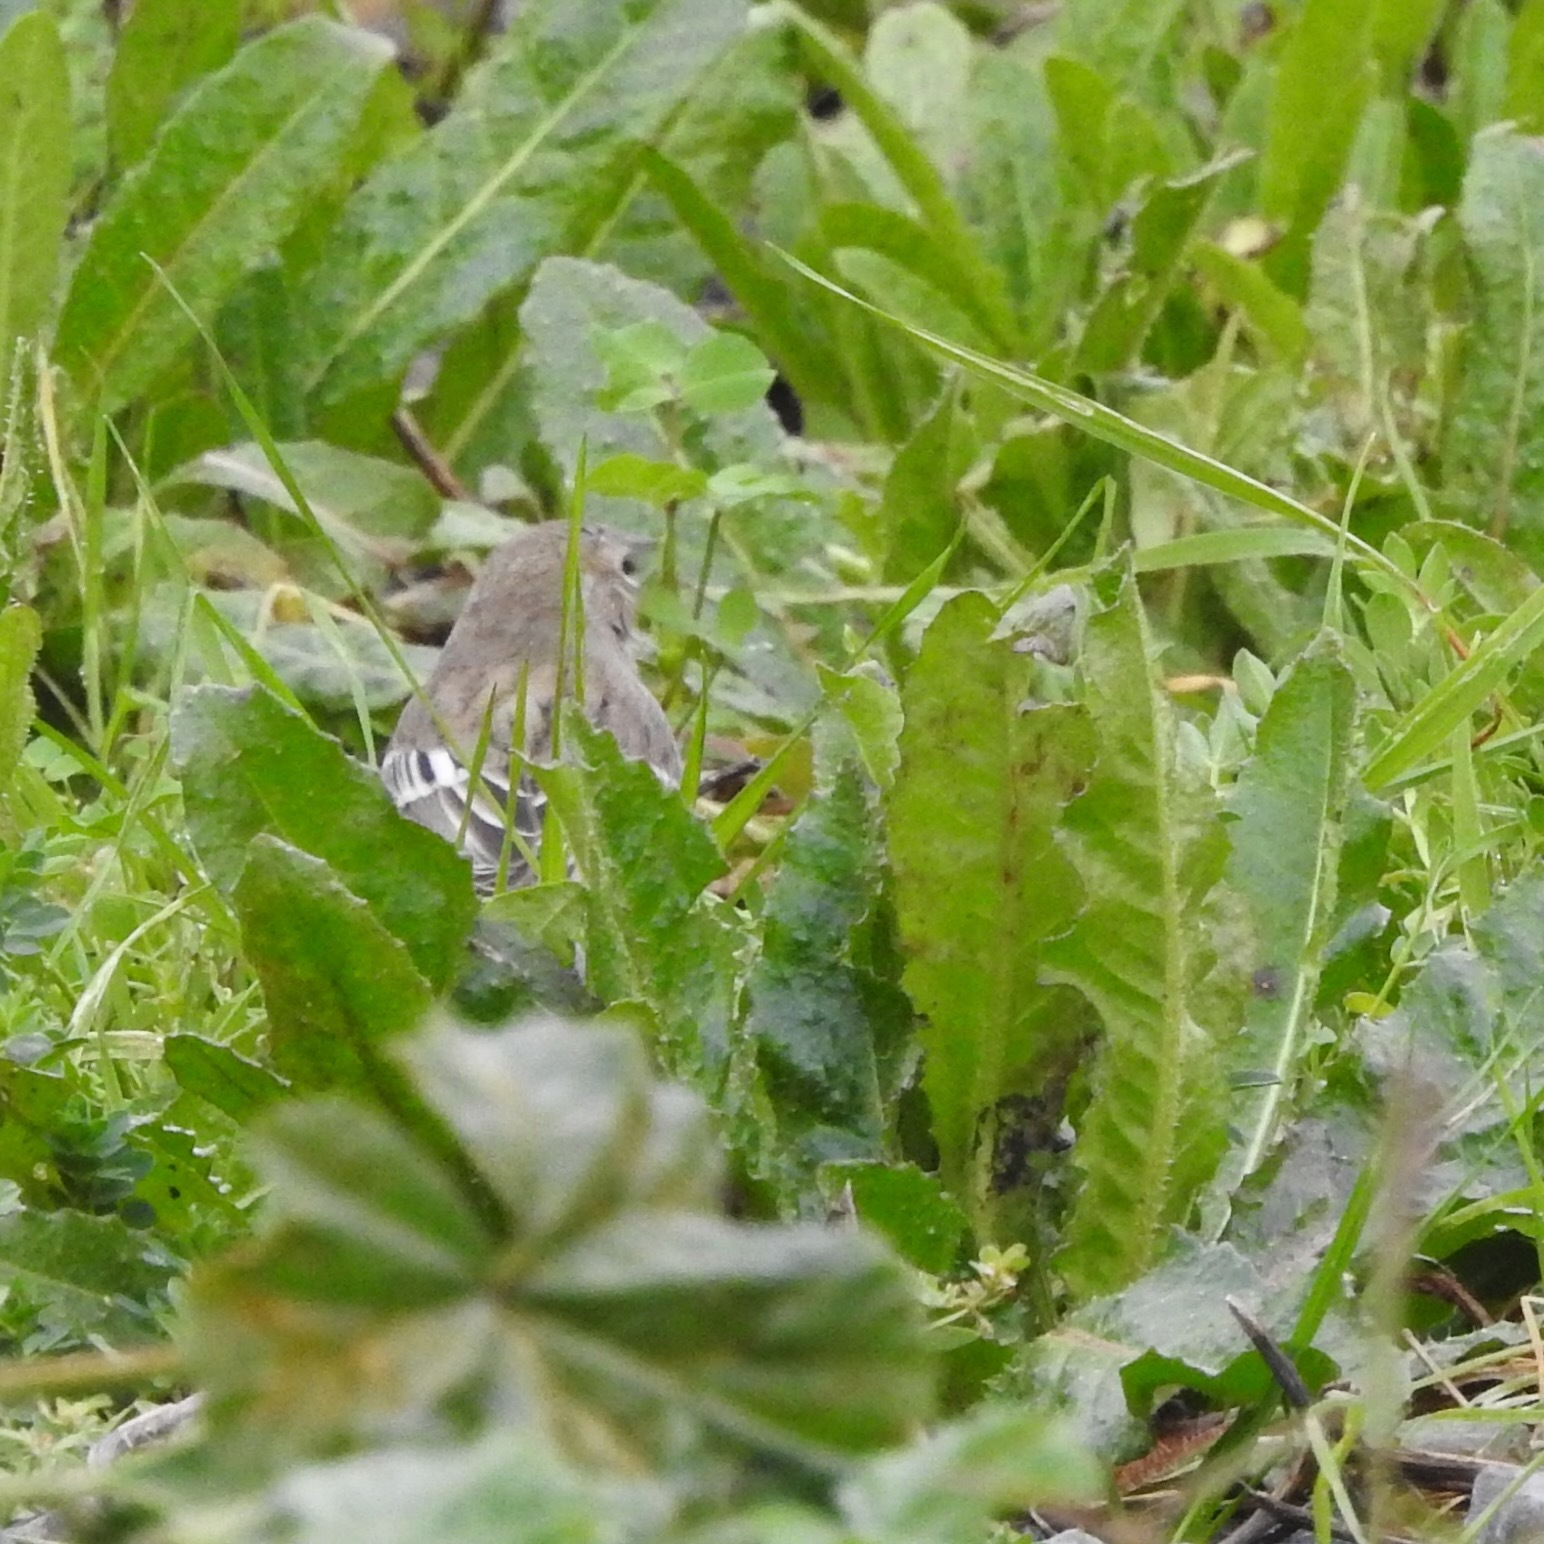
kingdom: Animalia
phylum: Chordata
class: Aves
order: Passeriformes
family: Parulidae
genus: Setophaga
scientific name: Setophaga coronata
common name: Myrtle warbler
